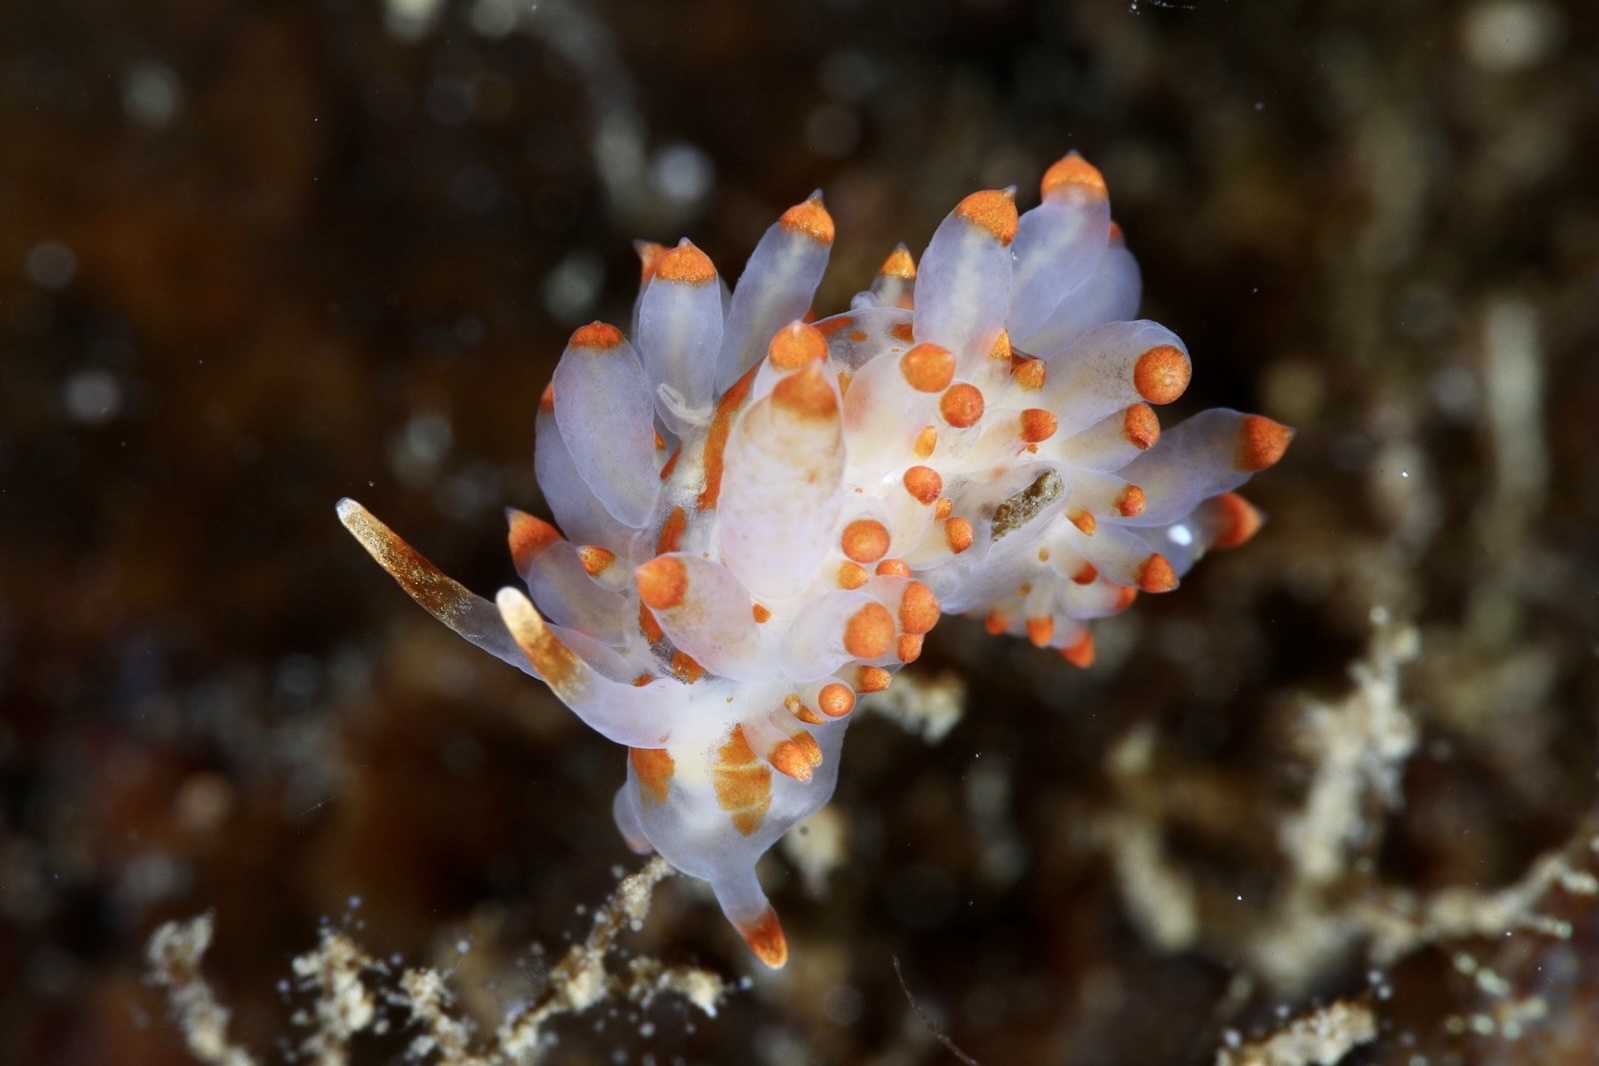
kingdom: Animalia
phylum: Mollusca
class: Gastropoda
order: Nudibranchia
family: Eubranchidae
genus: Amphorina
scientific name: Amphorina farrani
